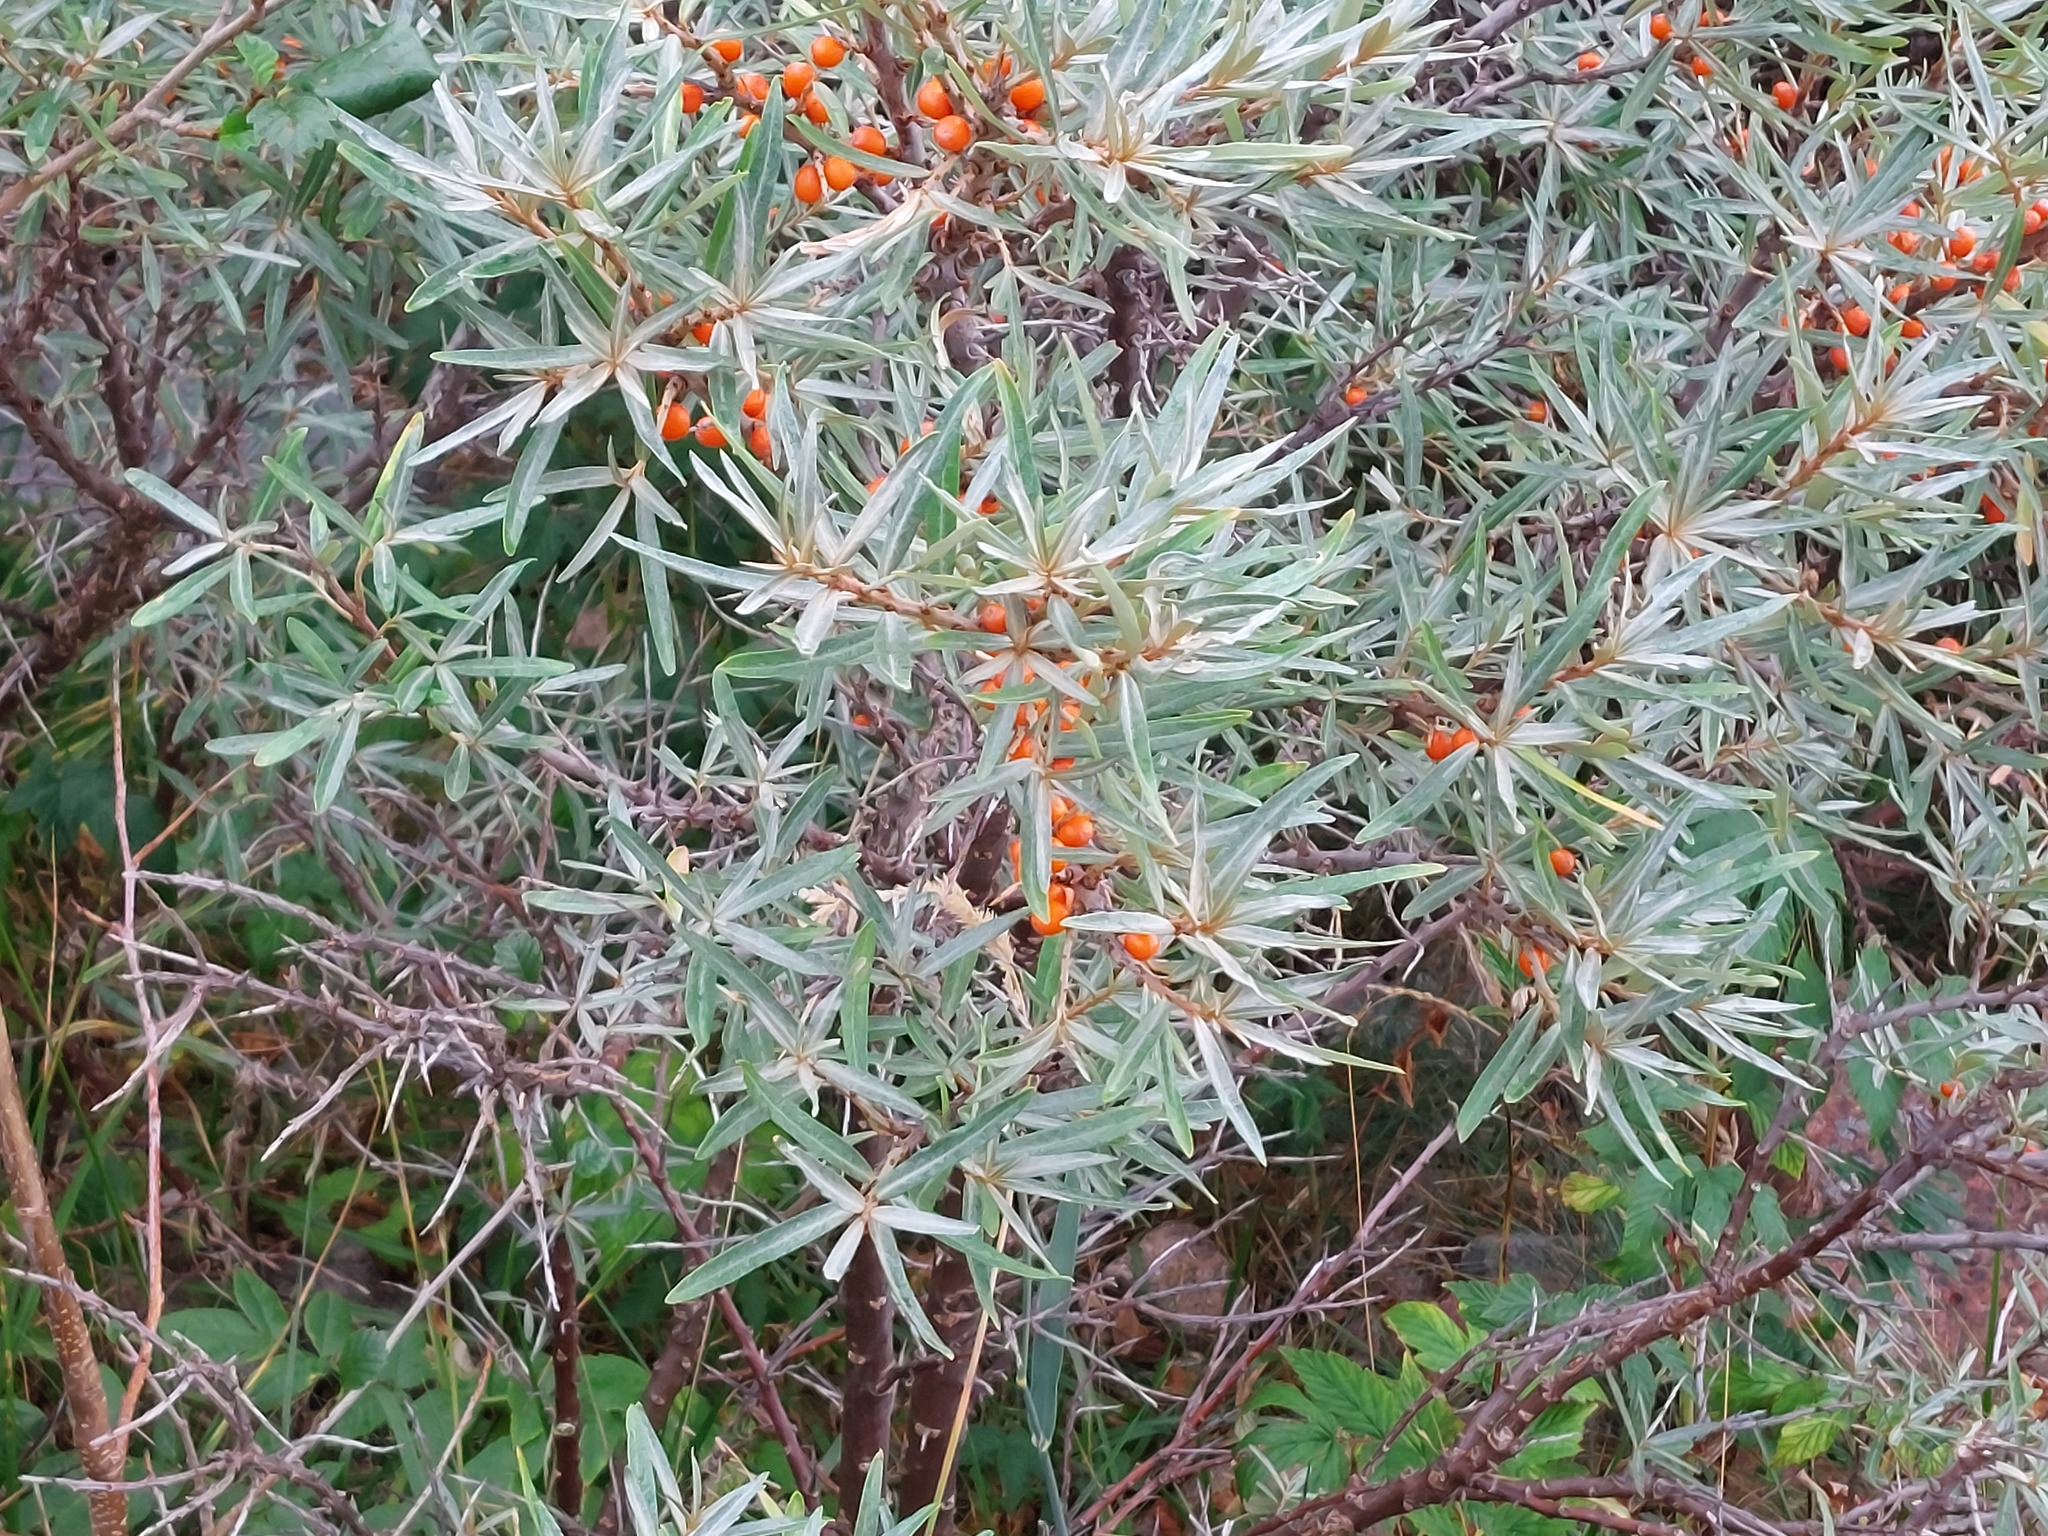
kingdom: Plantae
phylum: Tracheophyta
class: Magnoliopsida
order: Rosales
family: Elaeagnaceae
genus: Hippophae
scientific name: Hippophae rhamnoides
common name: Sea-buckthorn
